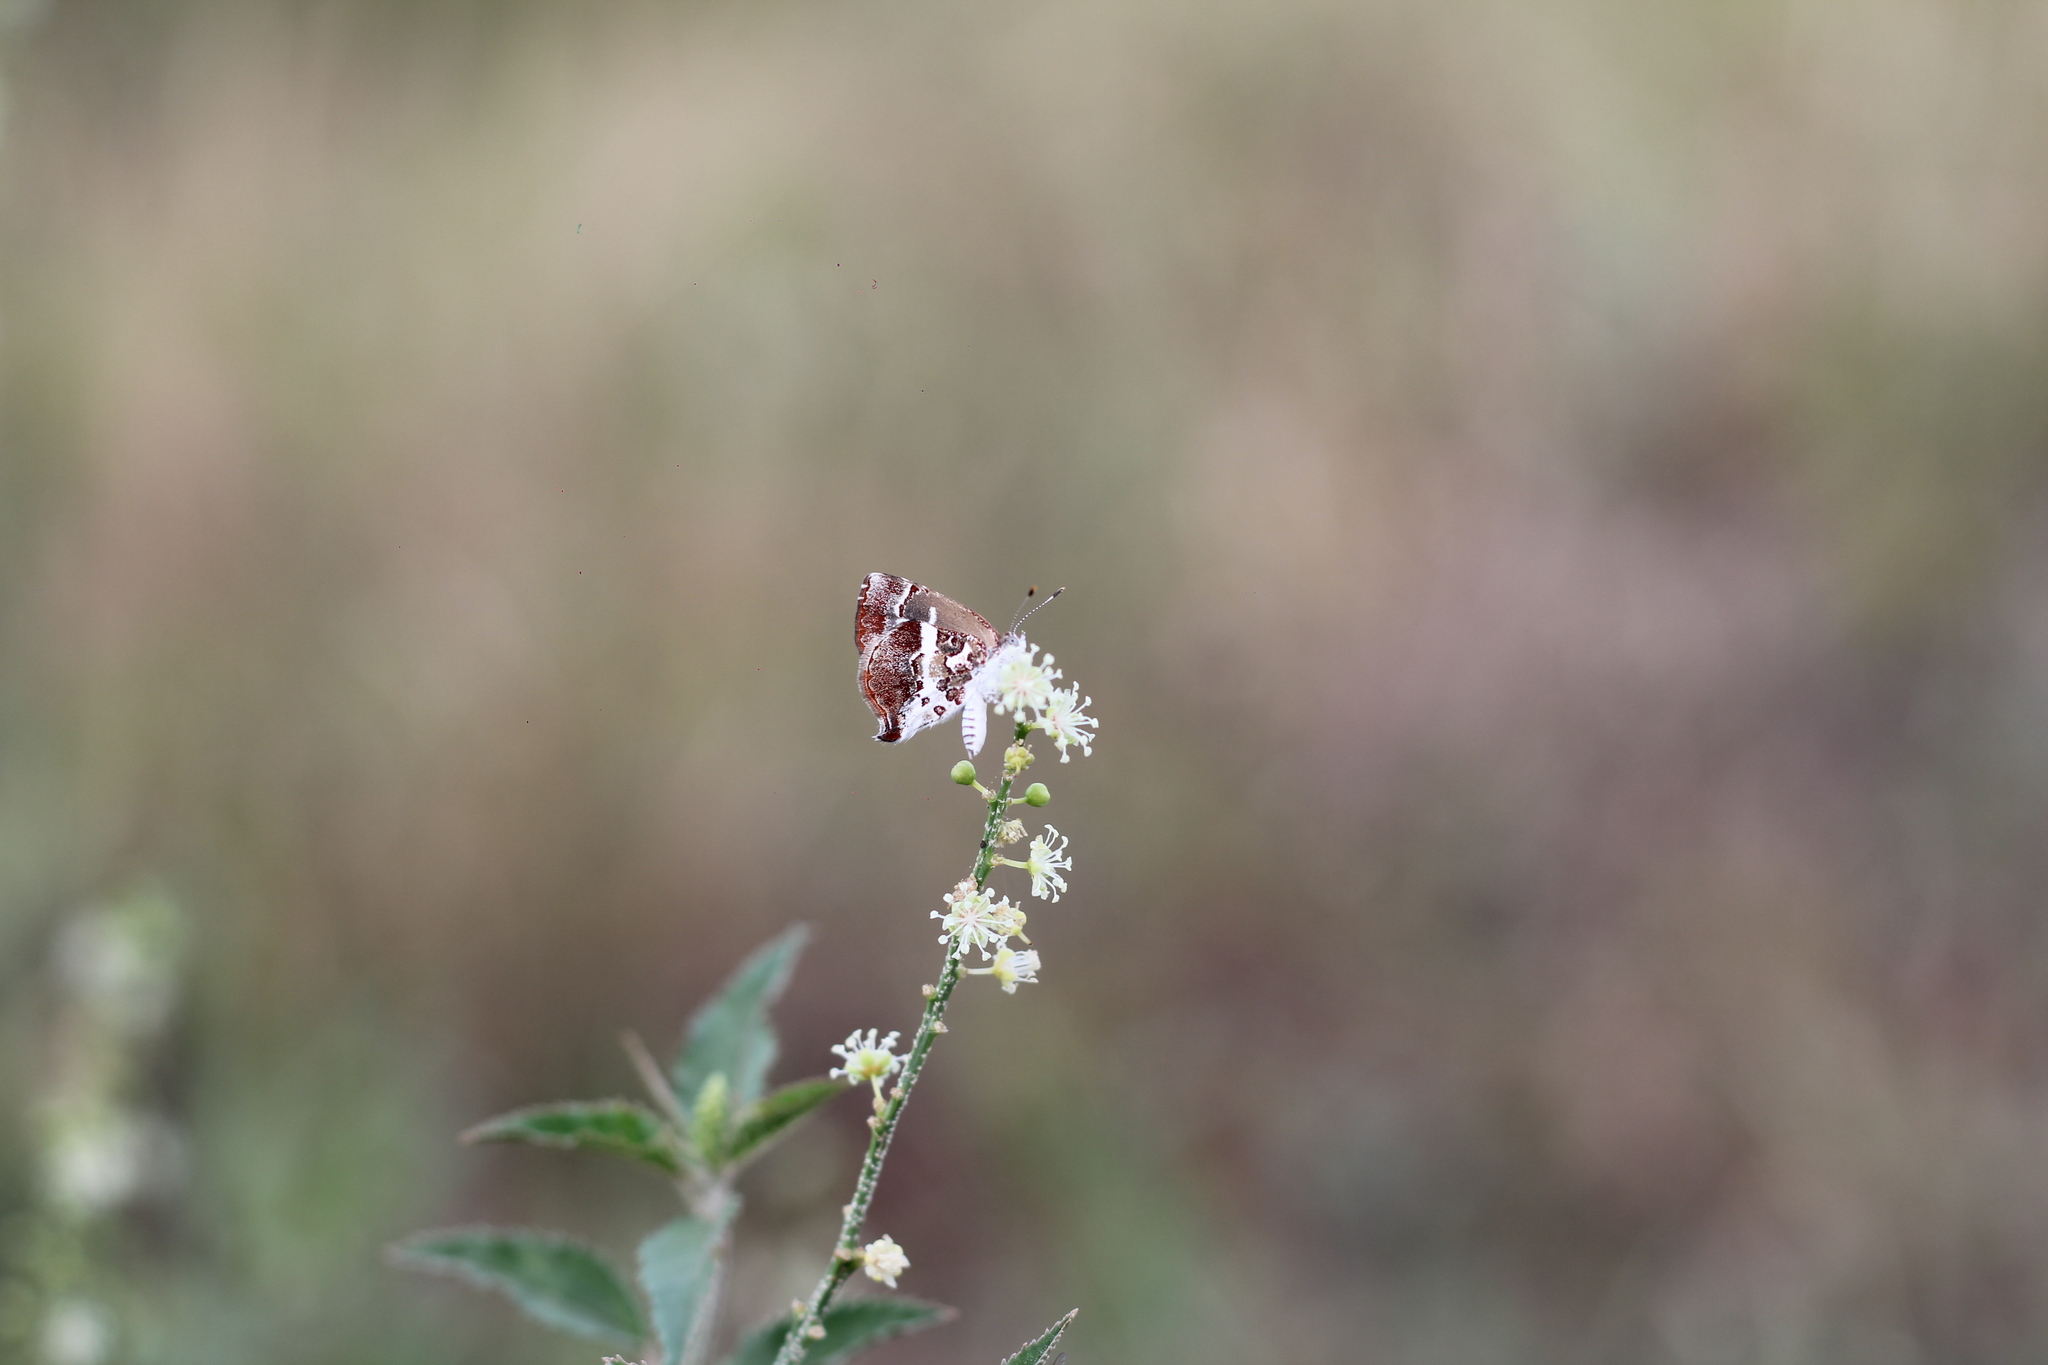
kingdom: Animalia
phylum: Arthropoda
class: Insecta
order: Lepidoptera
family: Lycaenidae
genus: Ministrymon
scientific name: Ministrymon gamma
